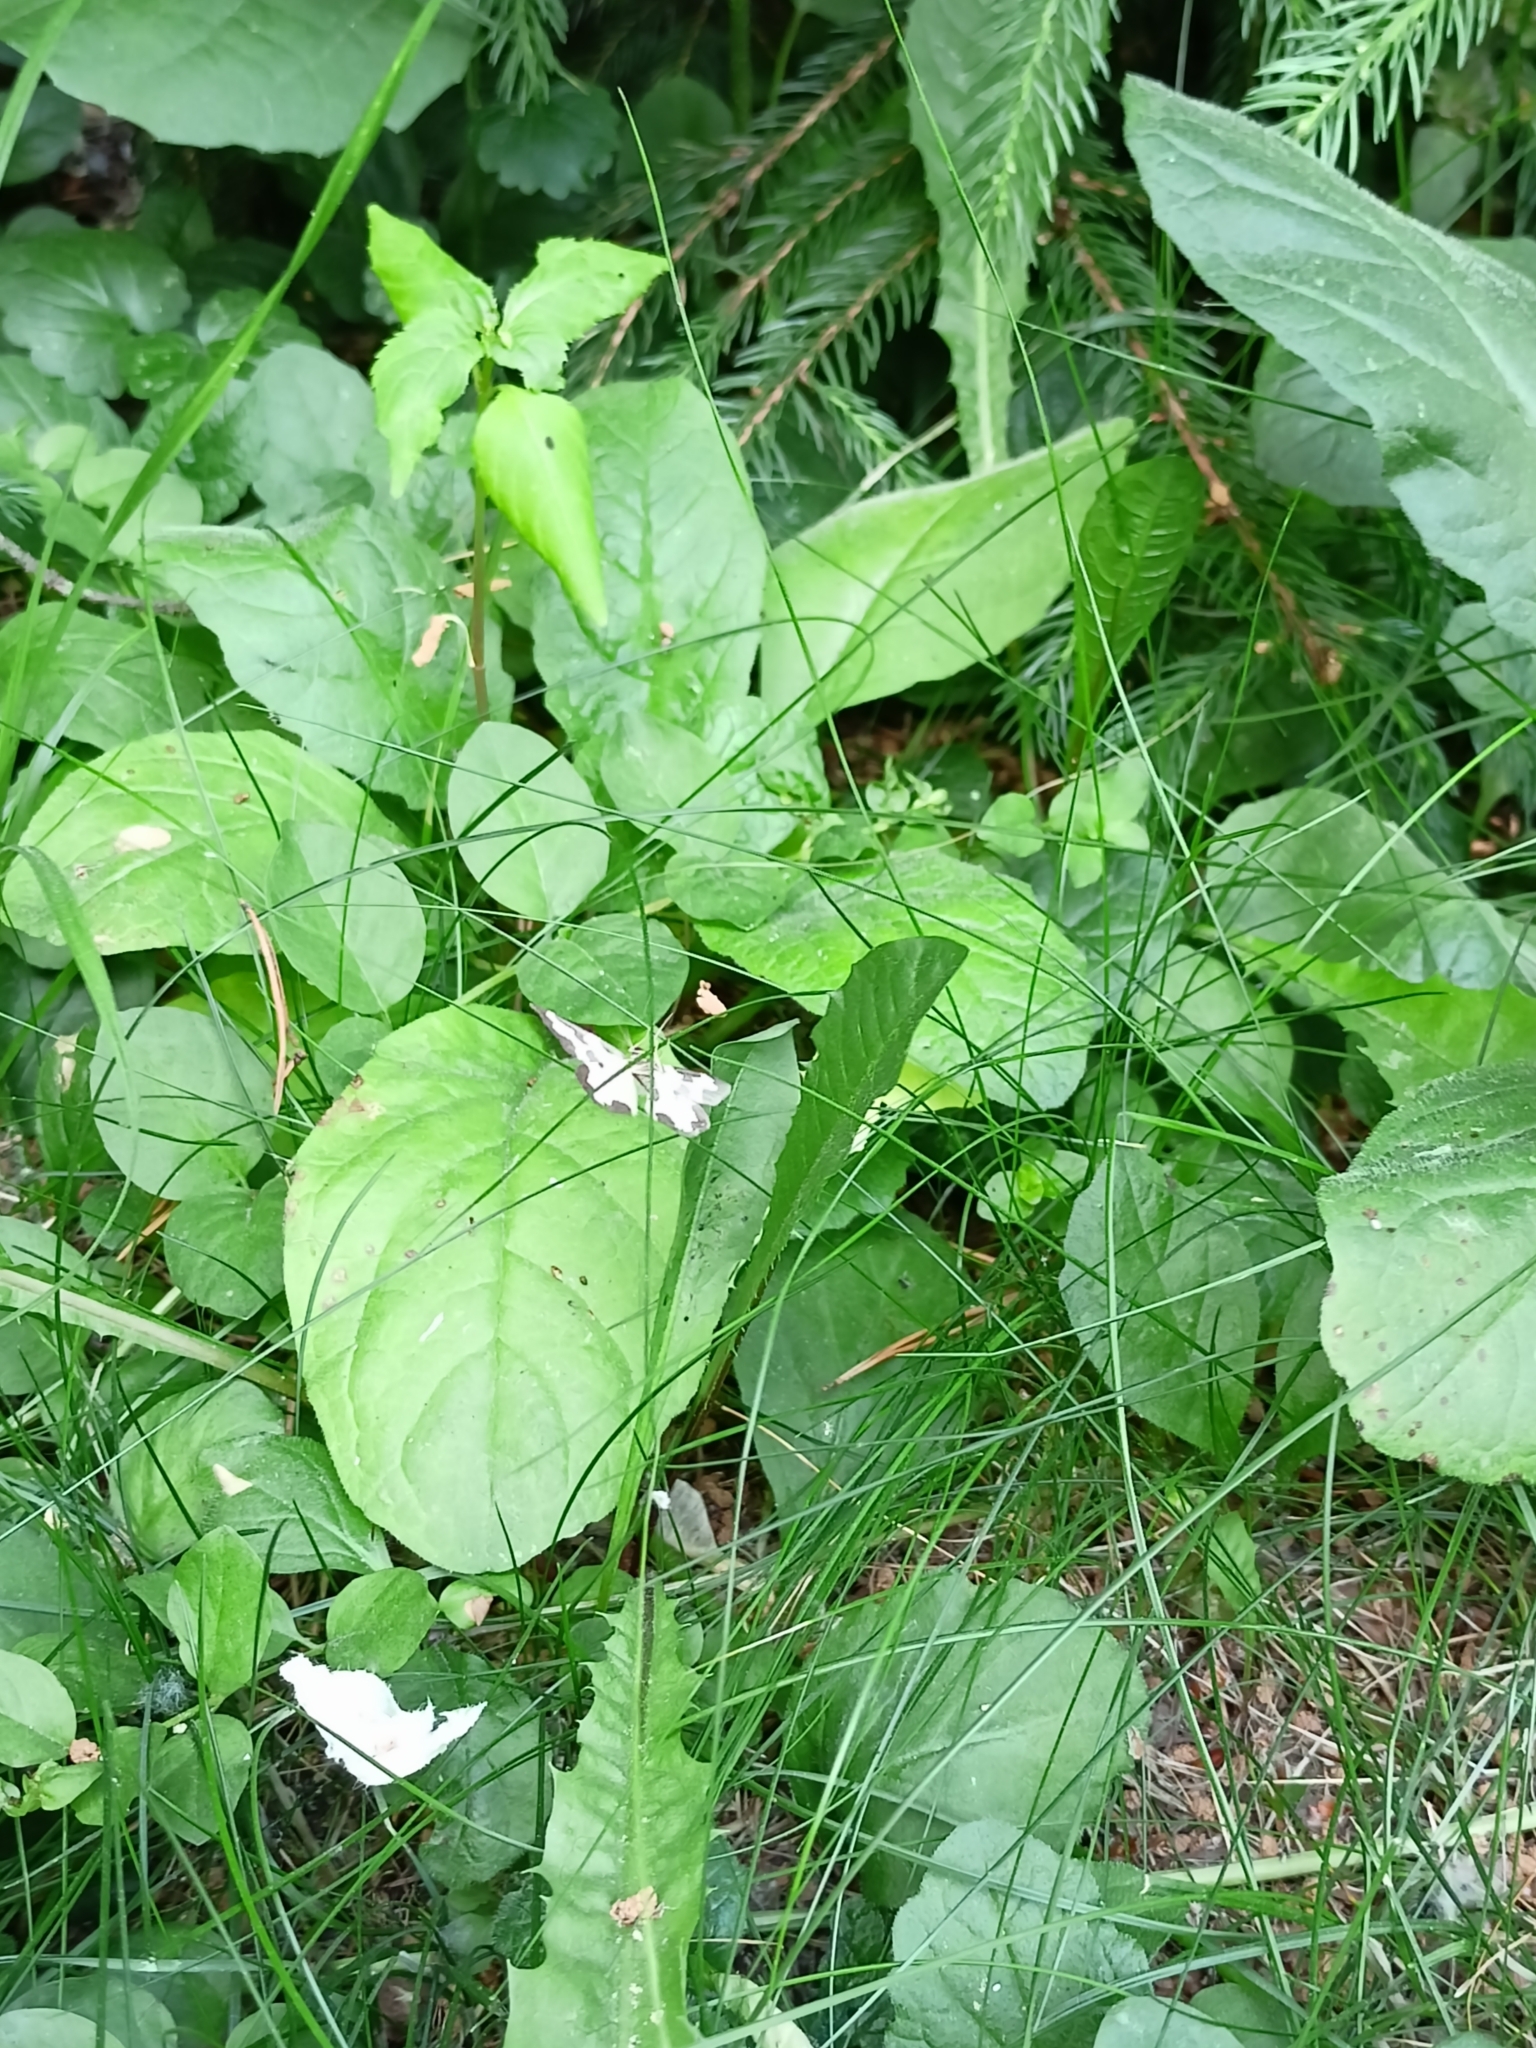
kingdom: Animalia
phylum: Arthropoda
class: Insecta
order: Lepidoptera
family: Geometridae
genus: Lomaspilis
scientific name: Lomaspilis marginata
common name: Clouded border
